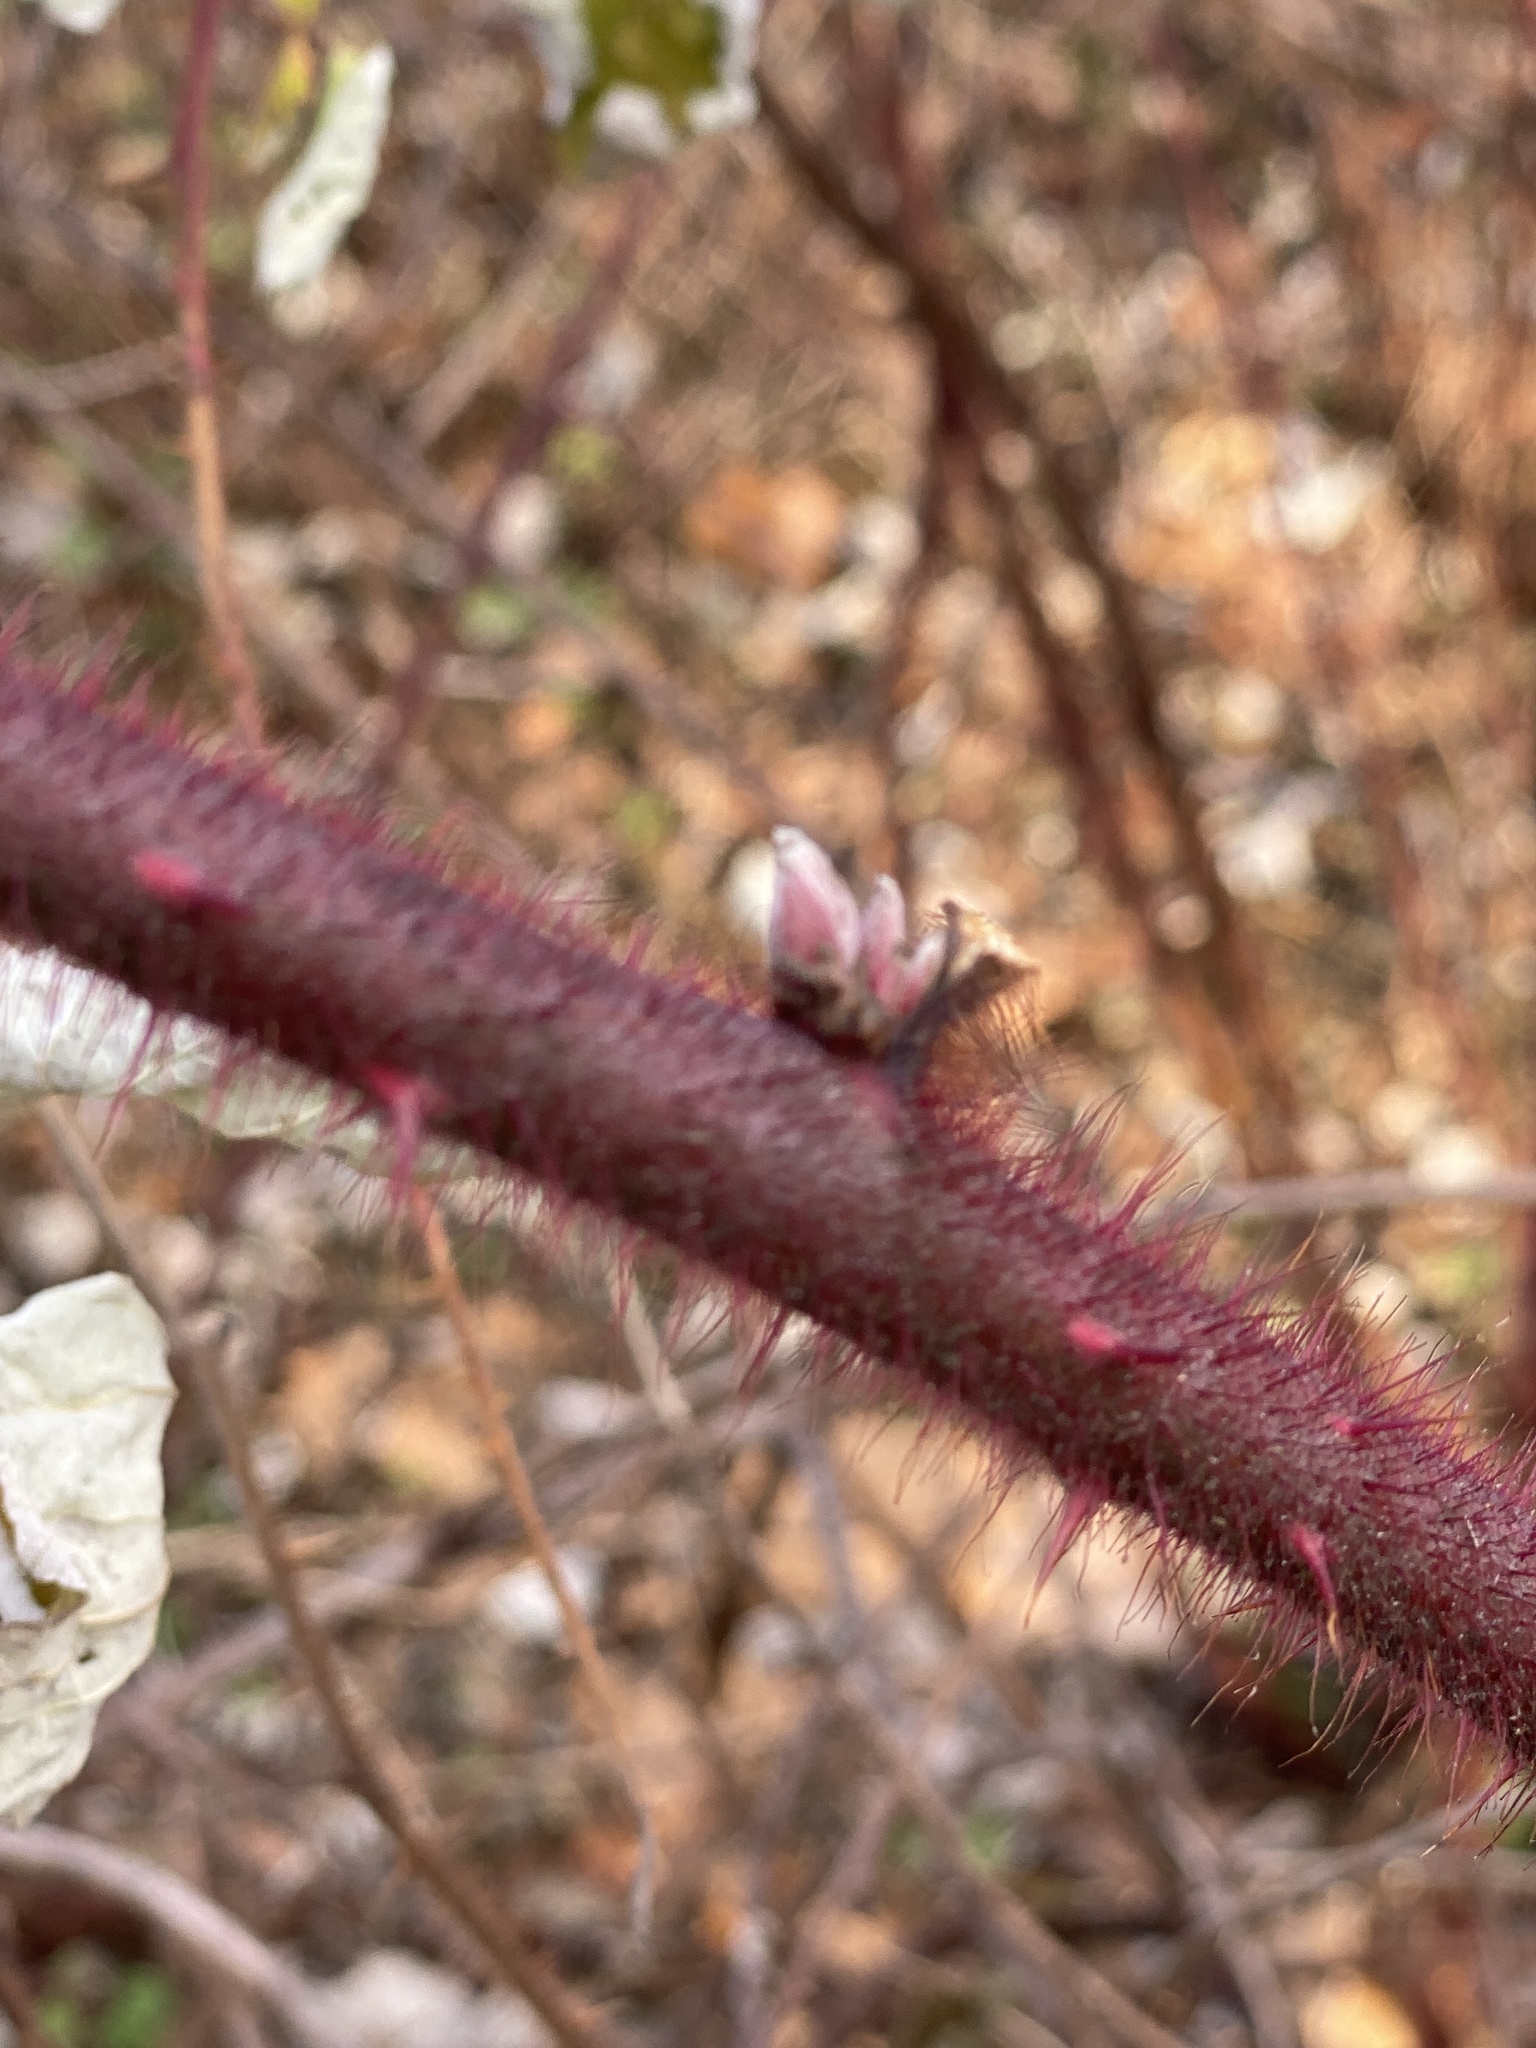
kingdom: Plantae
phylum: Tracheophyta
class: Magnoliopsida
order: Rosales
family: Rosaceae
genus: Rubus
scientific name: Rubus phoenicolasius
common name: Japanese wineberry
